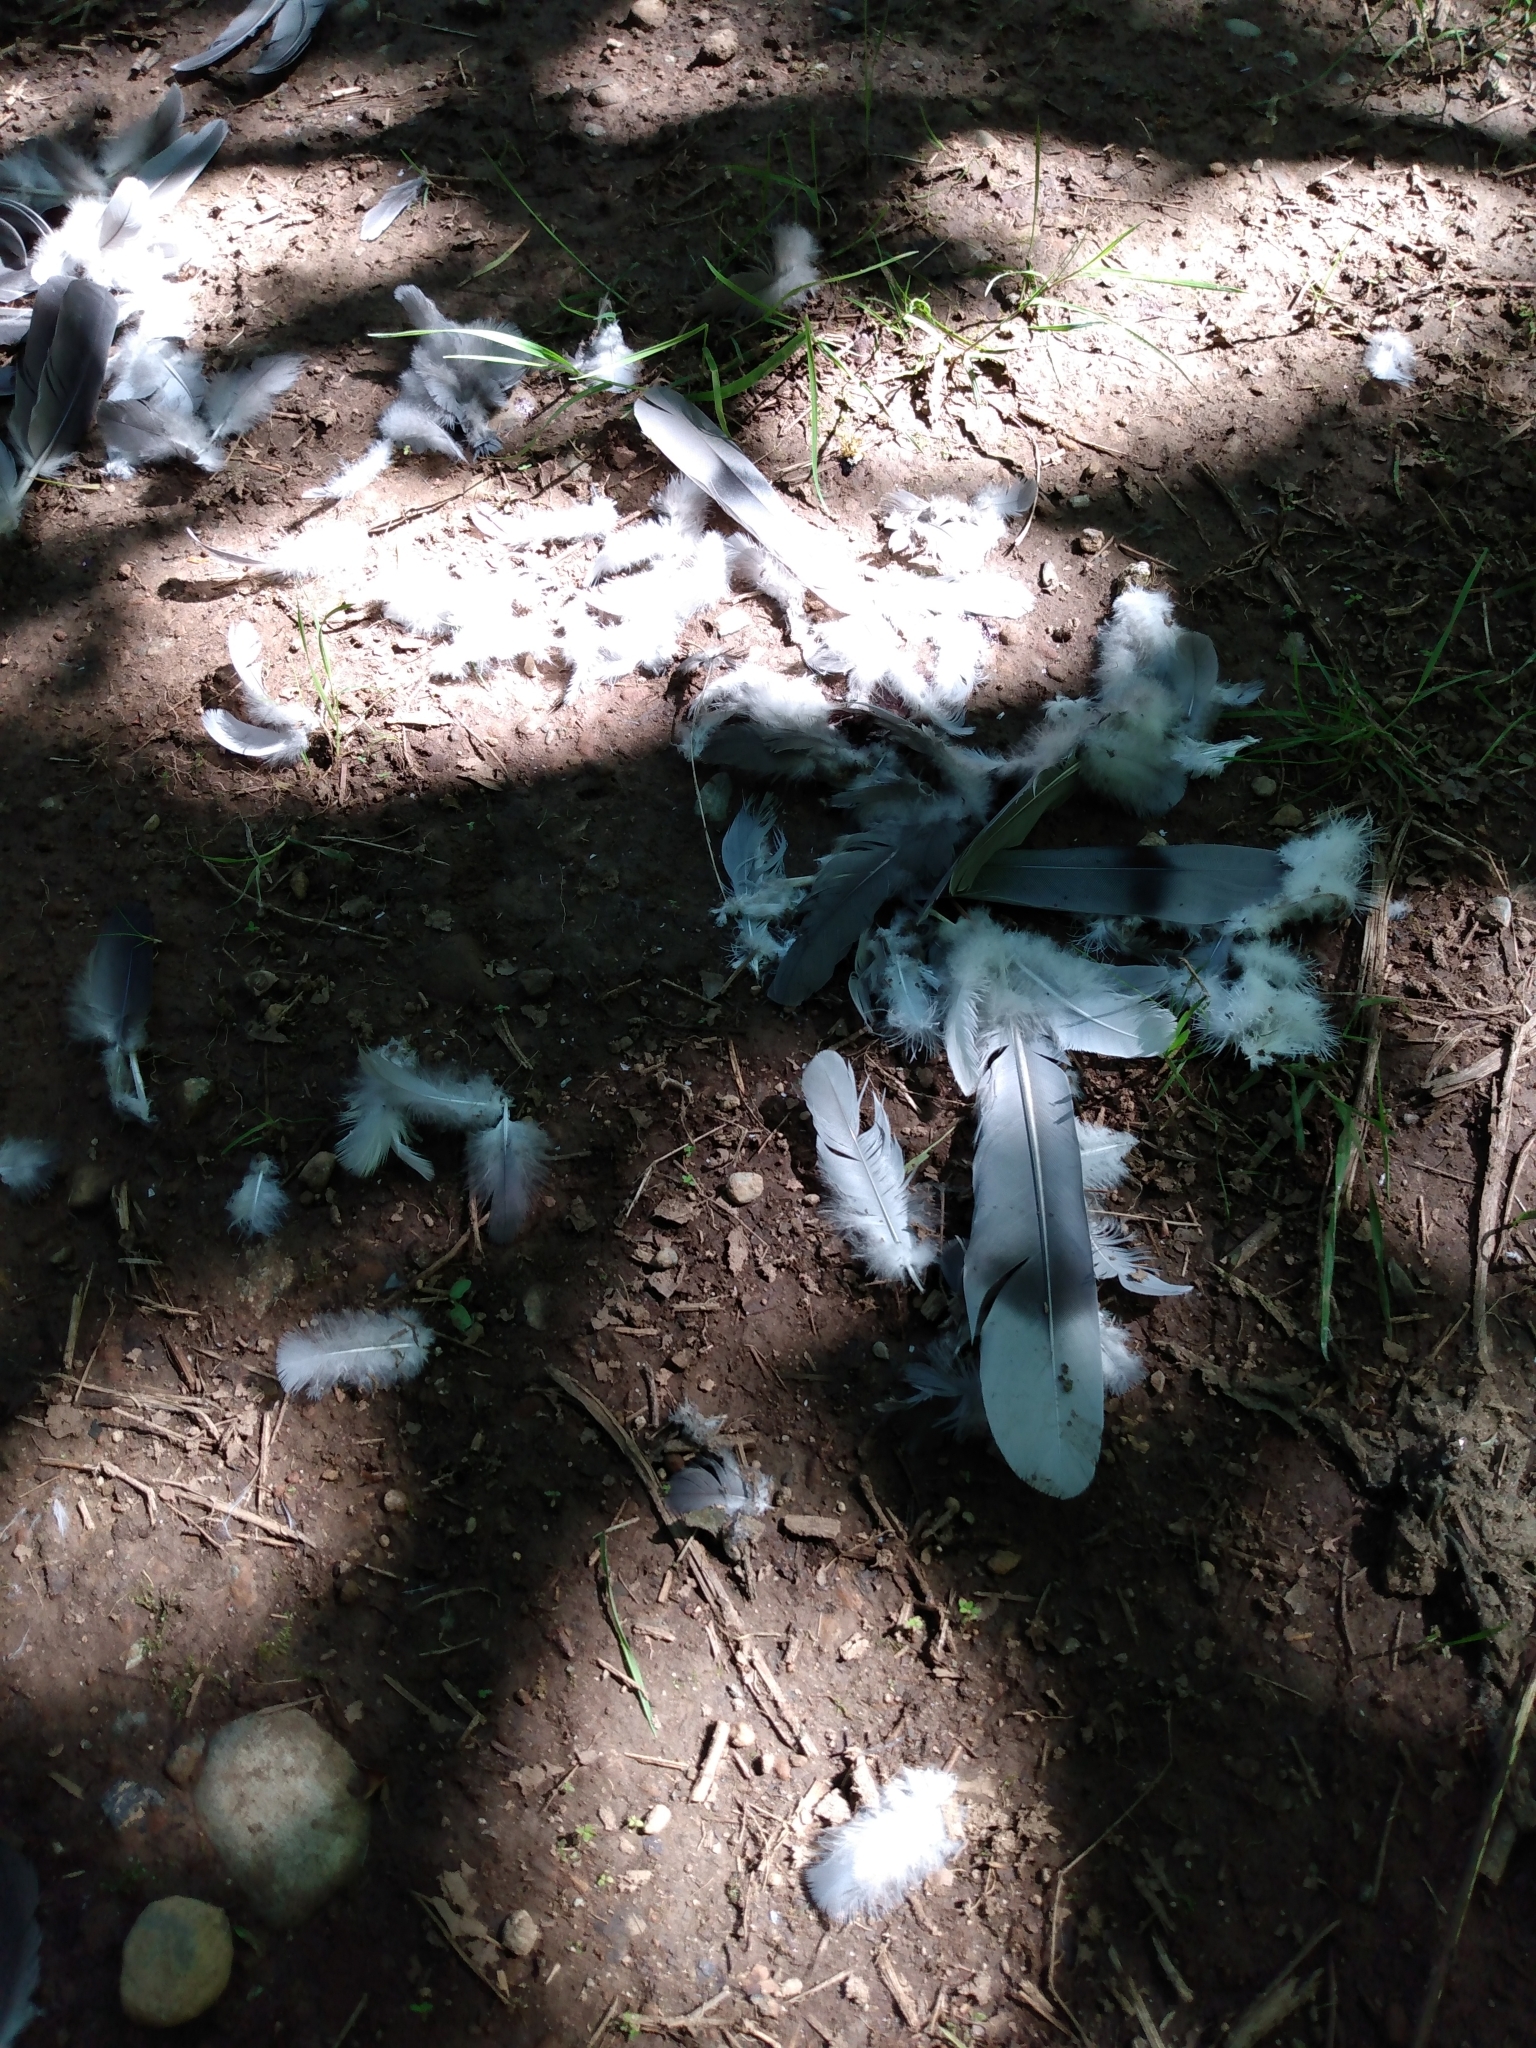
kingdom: Animalia
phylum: Chordata
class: Aves
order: Columbiformes
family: Columbidae
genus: Patagioenas
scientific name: Patagioenas fasciata
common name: Band-tailed pigeon
